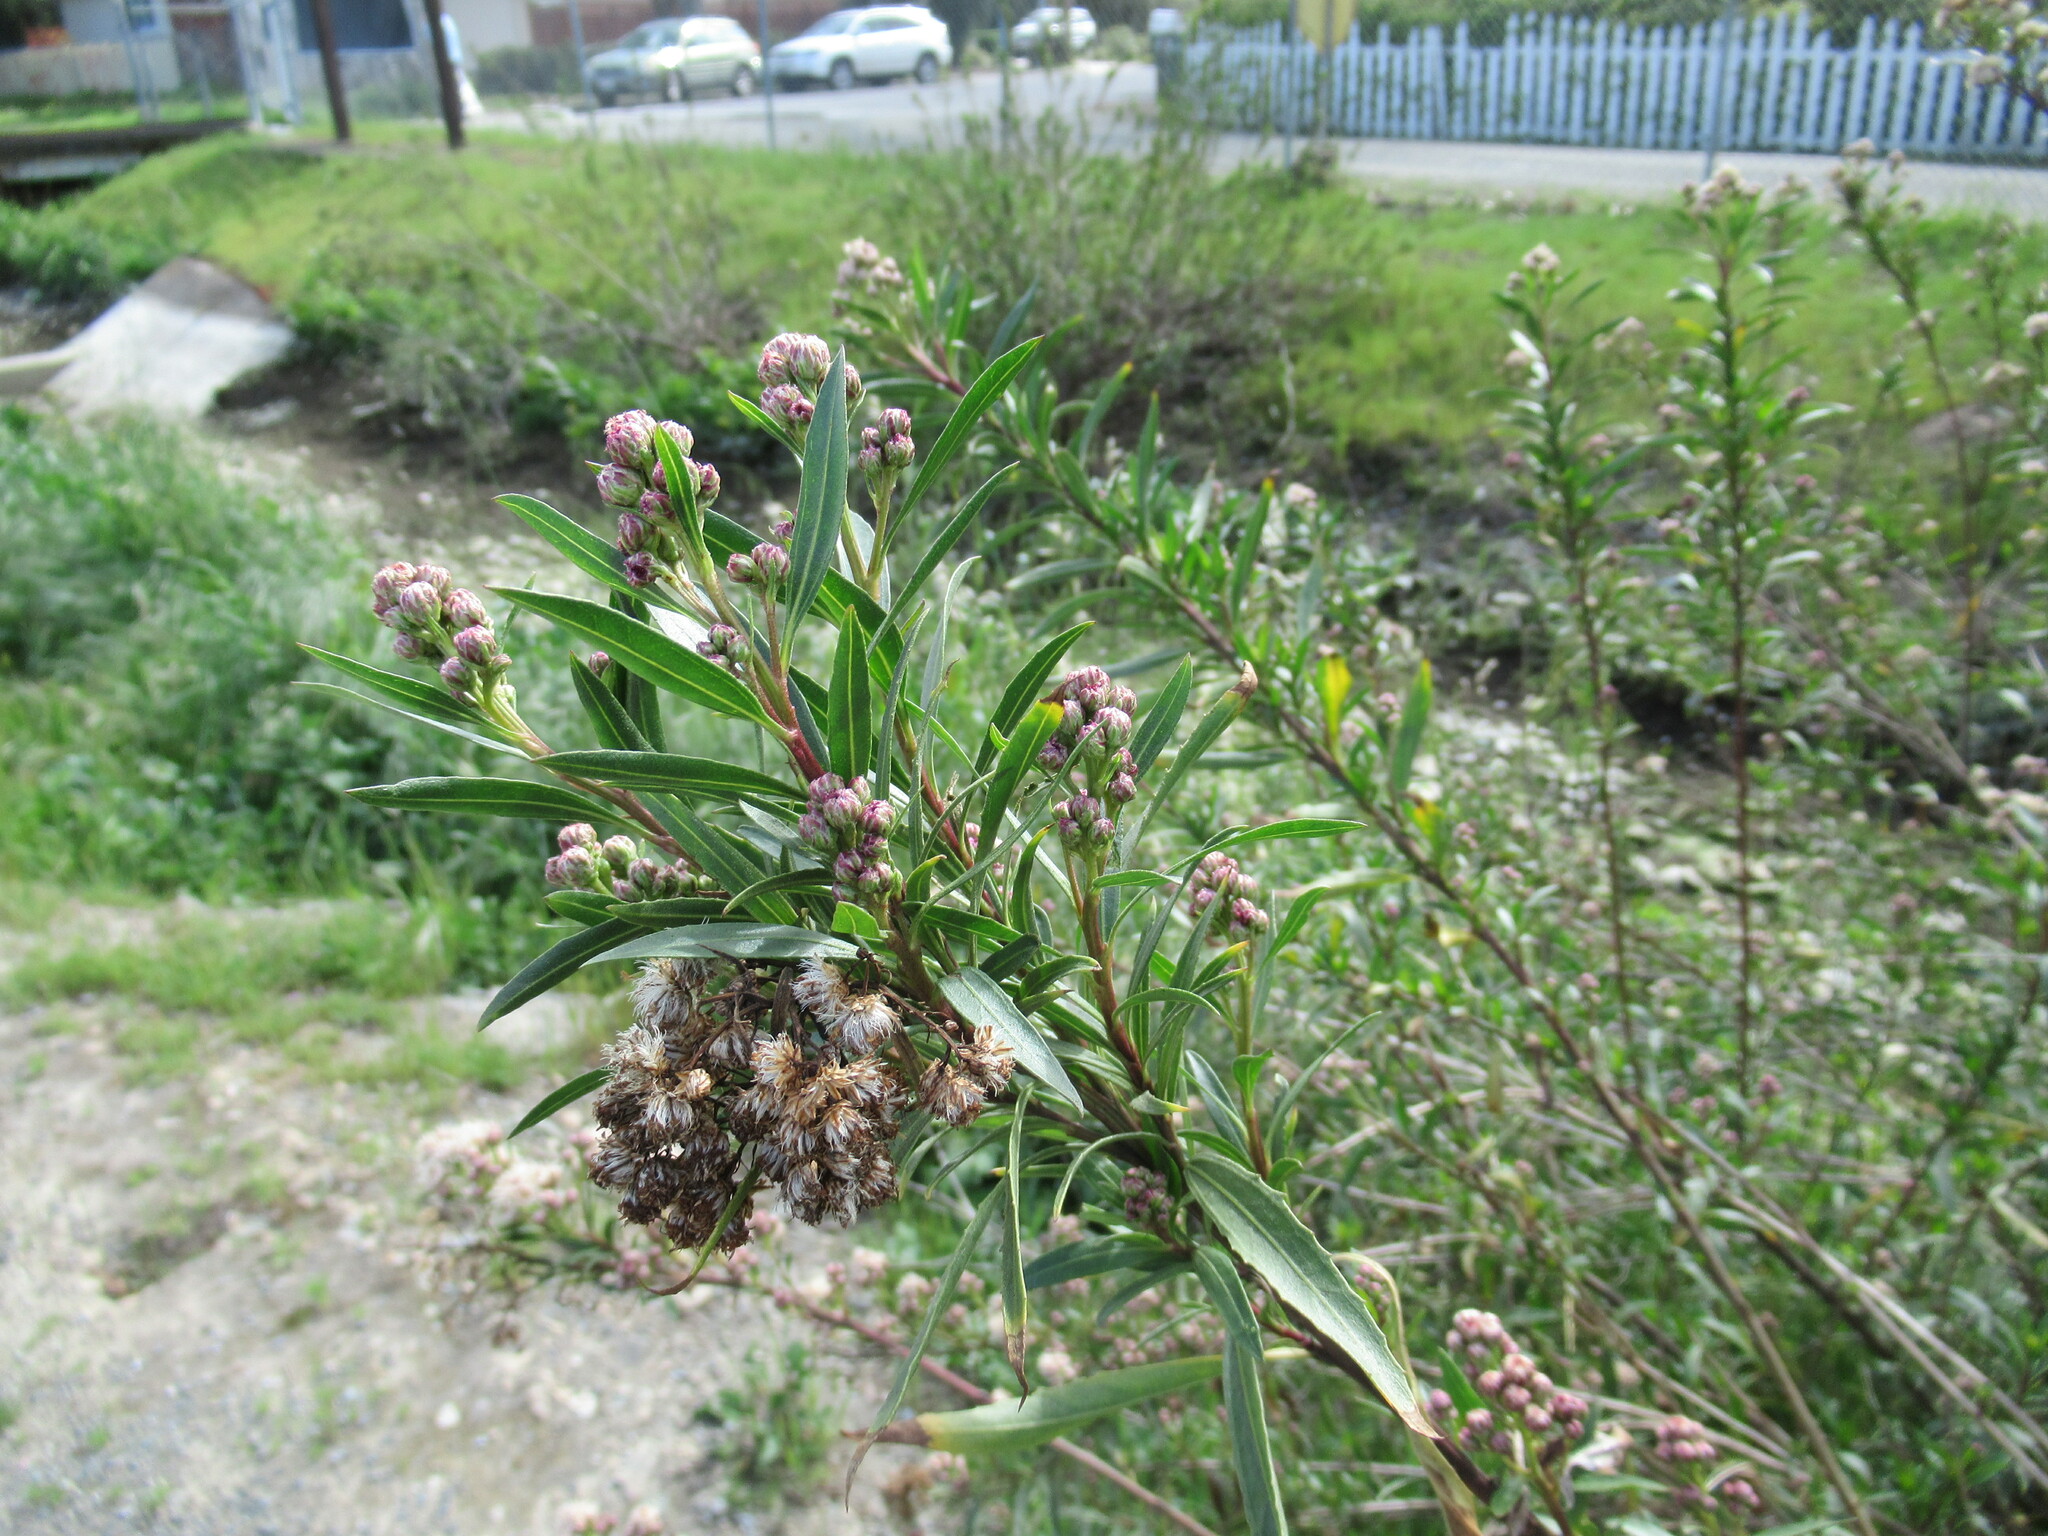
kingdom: Plantae
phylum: Tracheophyta
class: Magnoliopsida
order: Asterales
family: Asteraceae
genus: Baccharis
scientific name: Baccharis salicifolia
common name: Sticky baccharis
